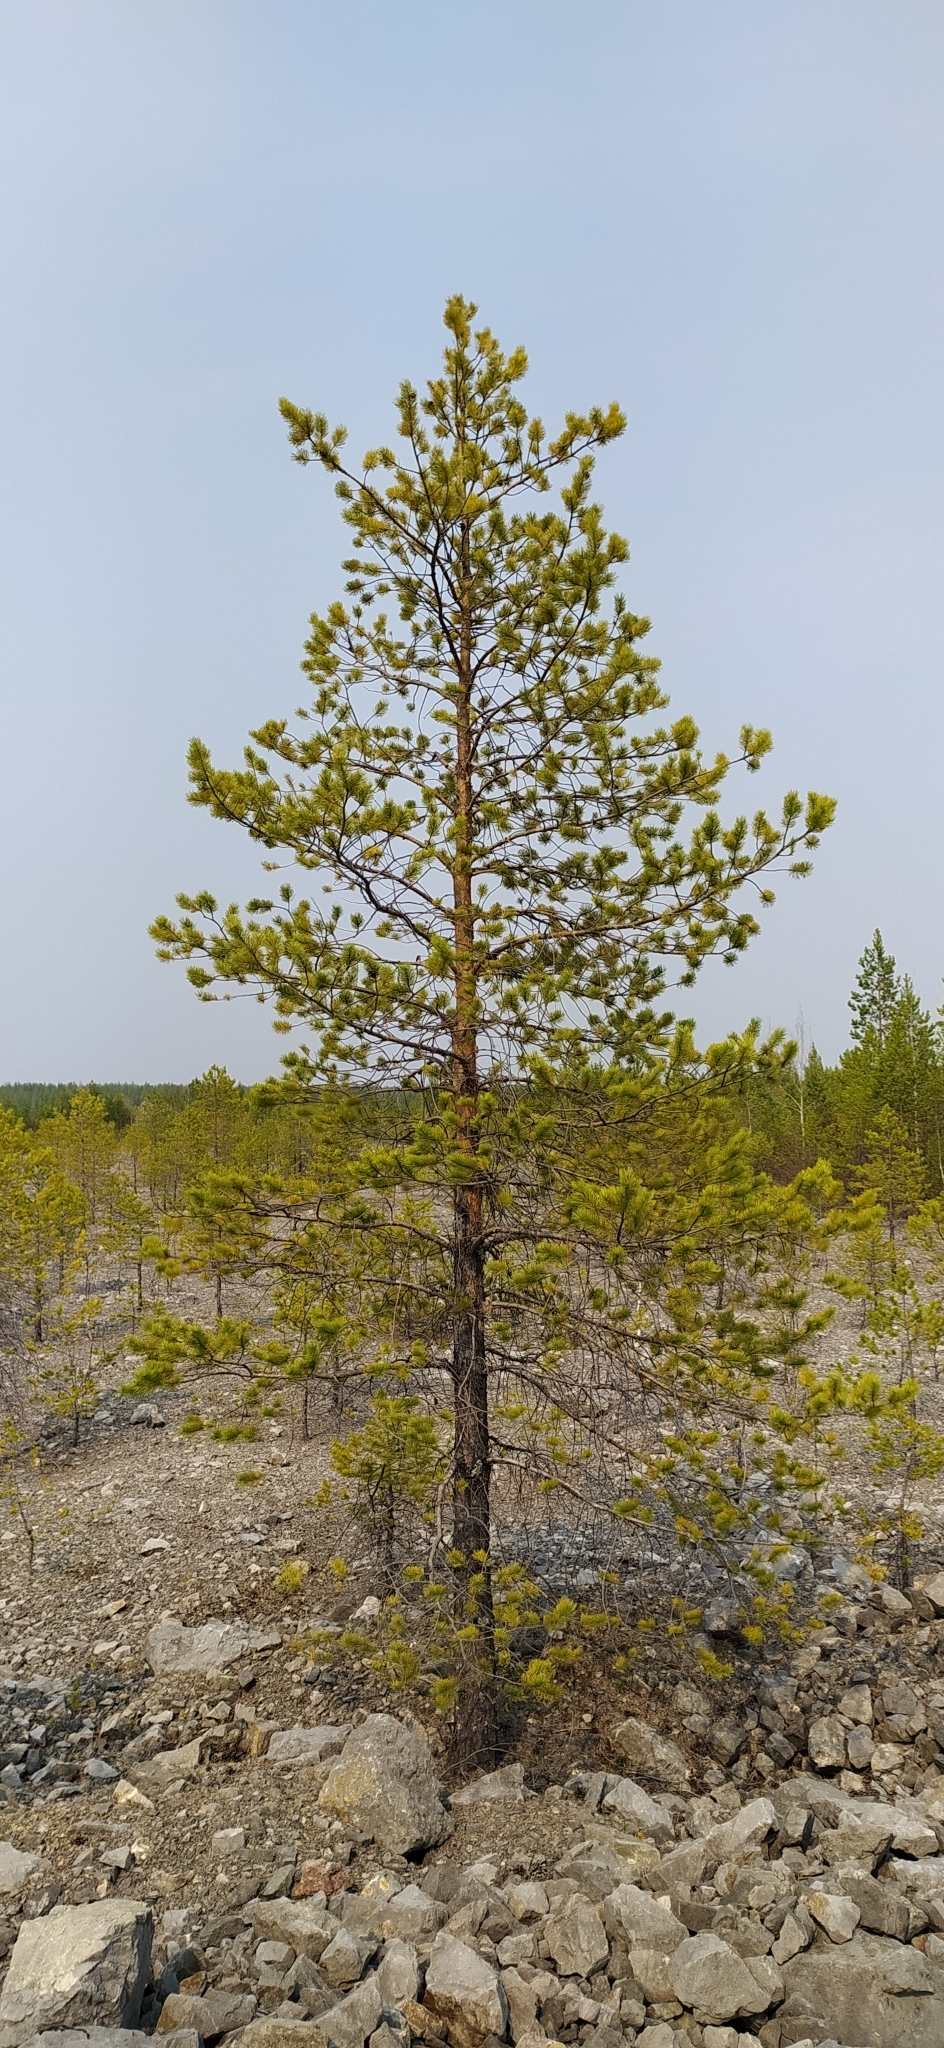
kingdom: Plantae
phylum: Tracheophyta
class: Pinopsida
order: Pinales
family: Pinaceae
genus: Pinus
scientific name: Pinus sylvestris
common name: Scots pine
